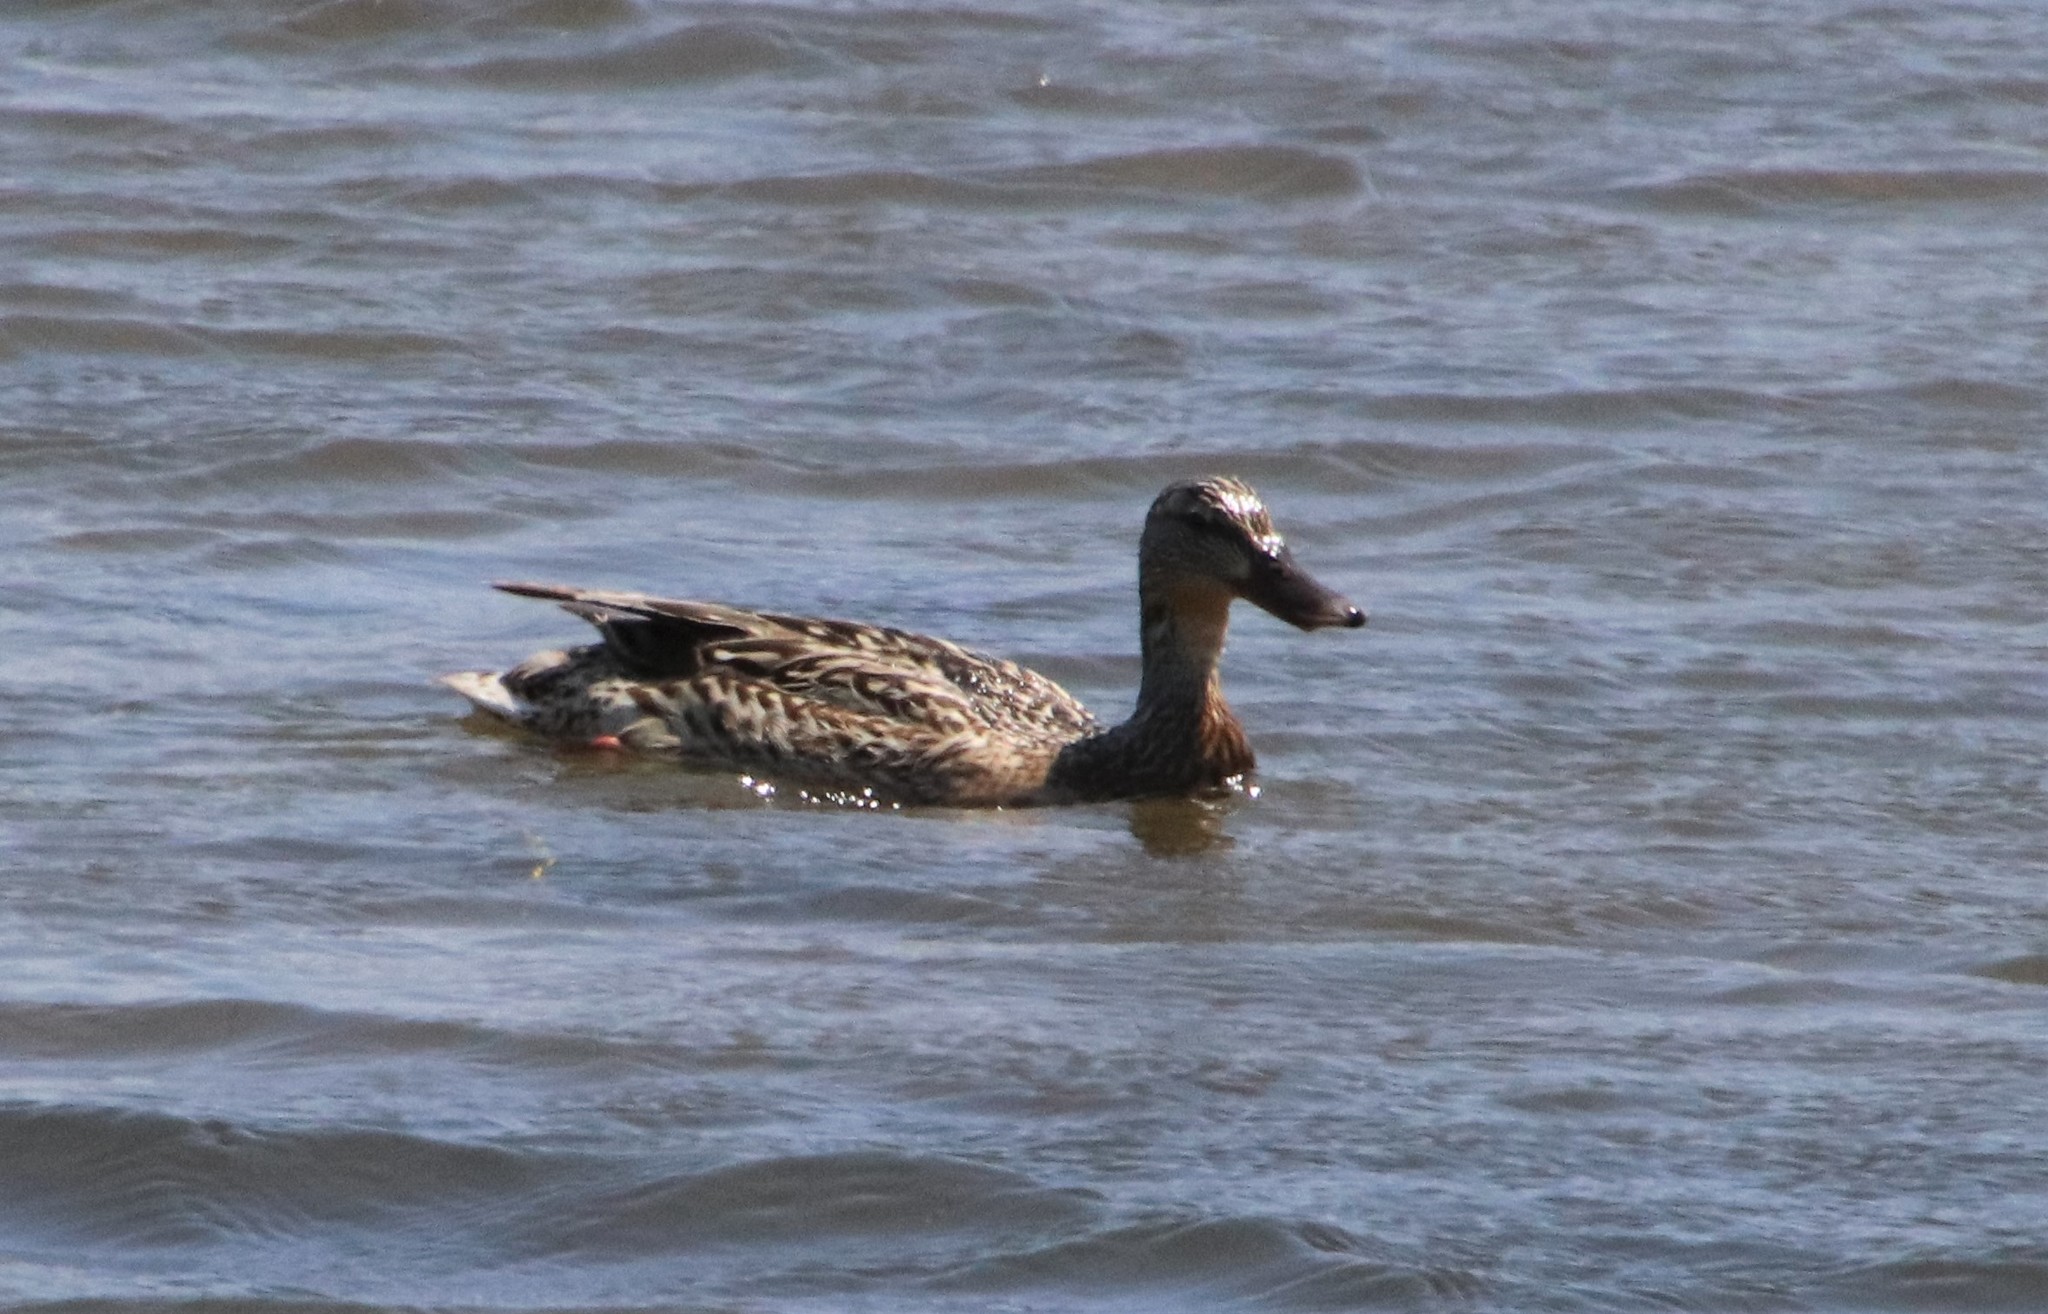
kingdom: Animalia
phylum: Chordata
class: Aves
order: Anseriformes
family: Anatidae
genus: Anas
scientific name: Anas platyrhynchos
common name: Mallard
